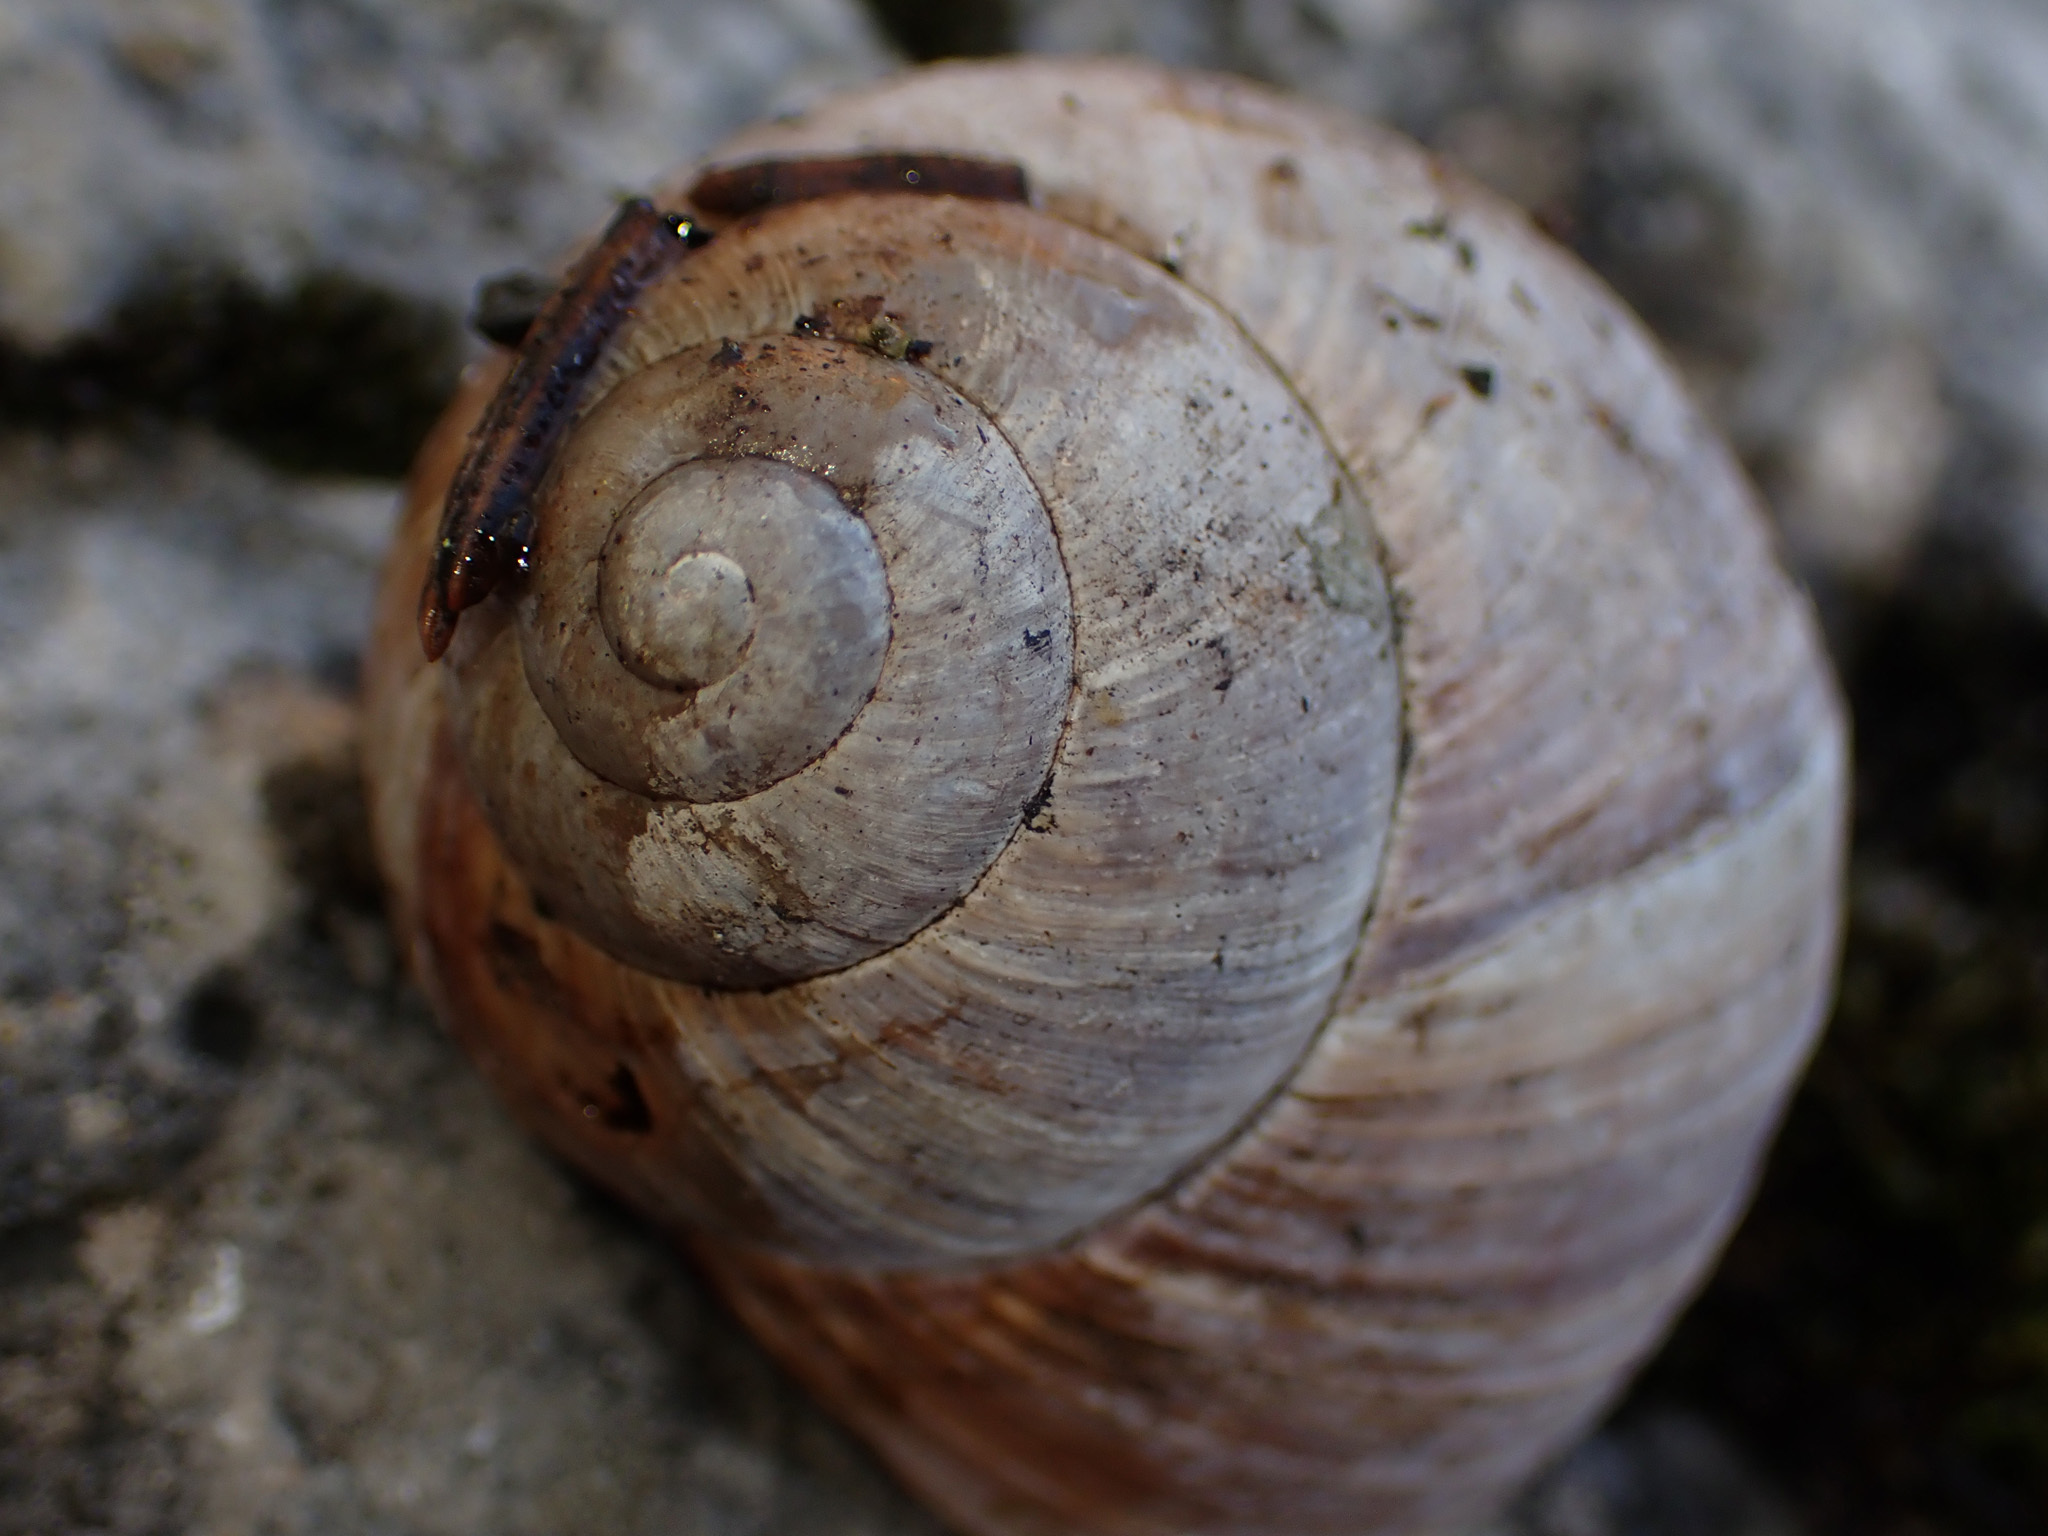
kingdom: Animalia
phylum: Mollusca
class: Gastropoda
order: Stylommatophora
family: Helicidae
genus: Helix
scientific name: Helix pomatia
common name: Roman snail
